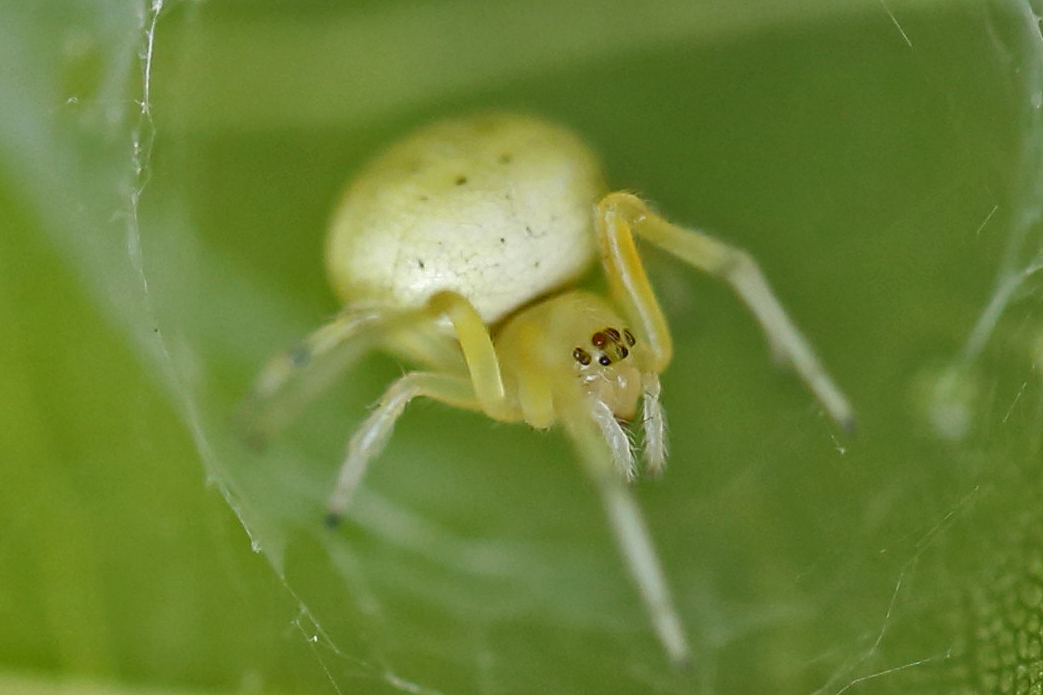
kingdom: Animalia
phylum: Arthropoda
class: Arachnida
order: Araneae
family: Araneidae
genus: Araneus
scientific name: Araneus thaddeus
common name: Lattice orbweaver
